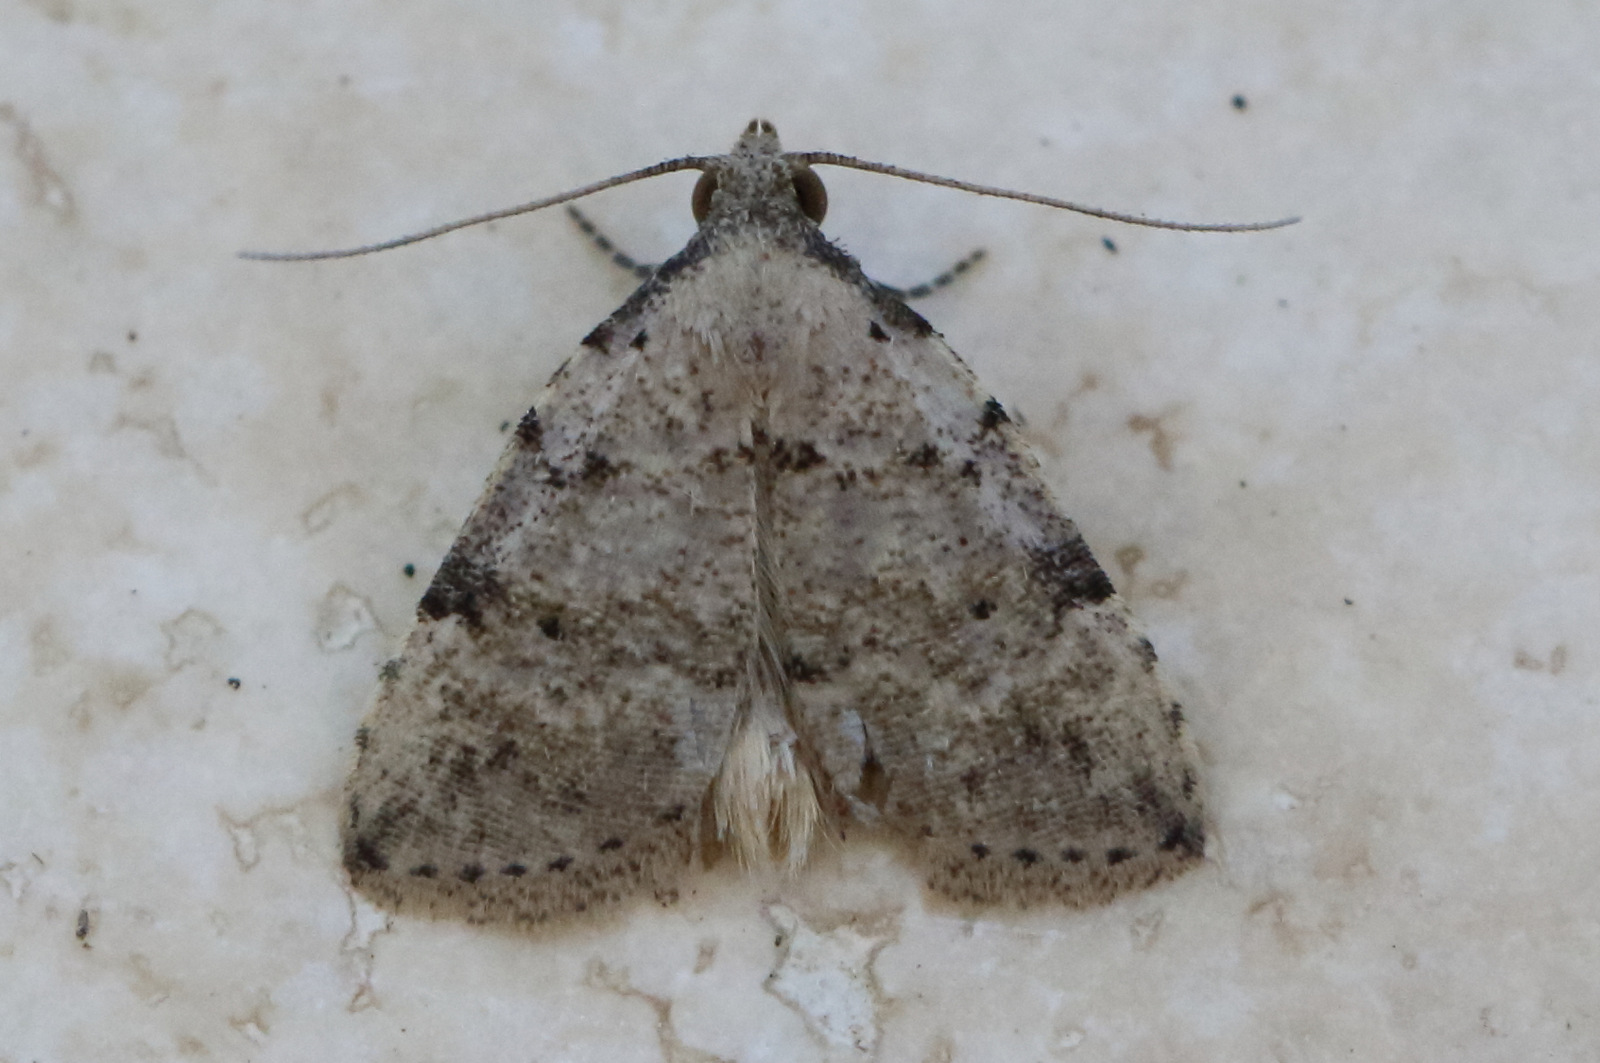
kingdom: Animalia
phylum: Arthropoda
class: Insecta
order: Lepidoptera
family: Erebidae
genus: Magna
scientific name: Magna myops
